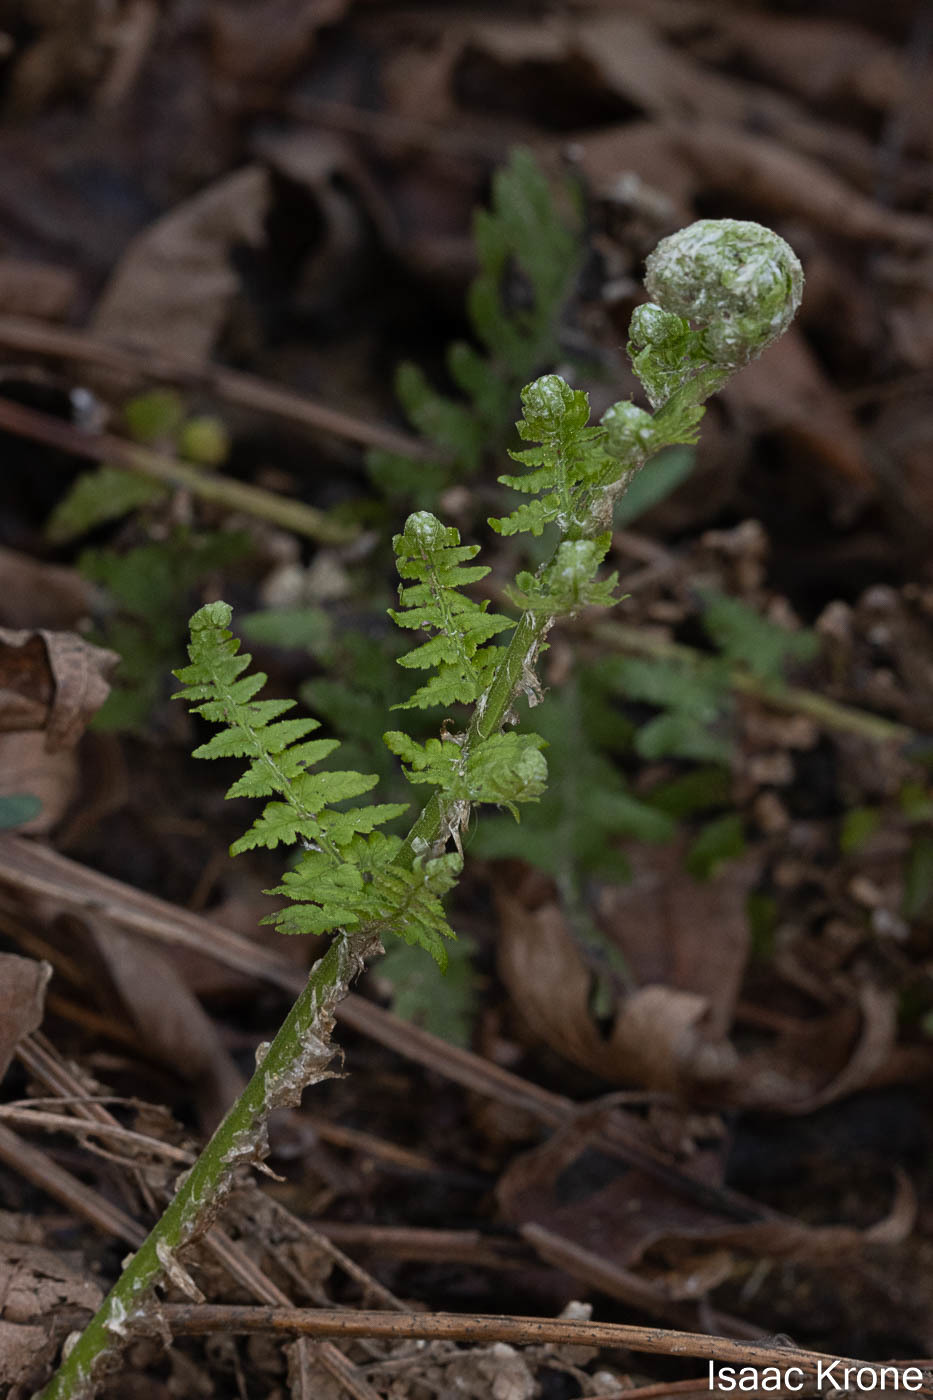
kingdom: Plantae
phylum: Tracheophyta
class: Polypodiopsida
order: Polypodiales
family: Dryopteridaceae
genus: Dryopteris
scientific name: Dryopteris arguta
